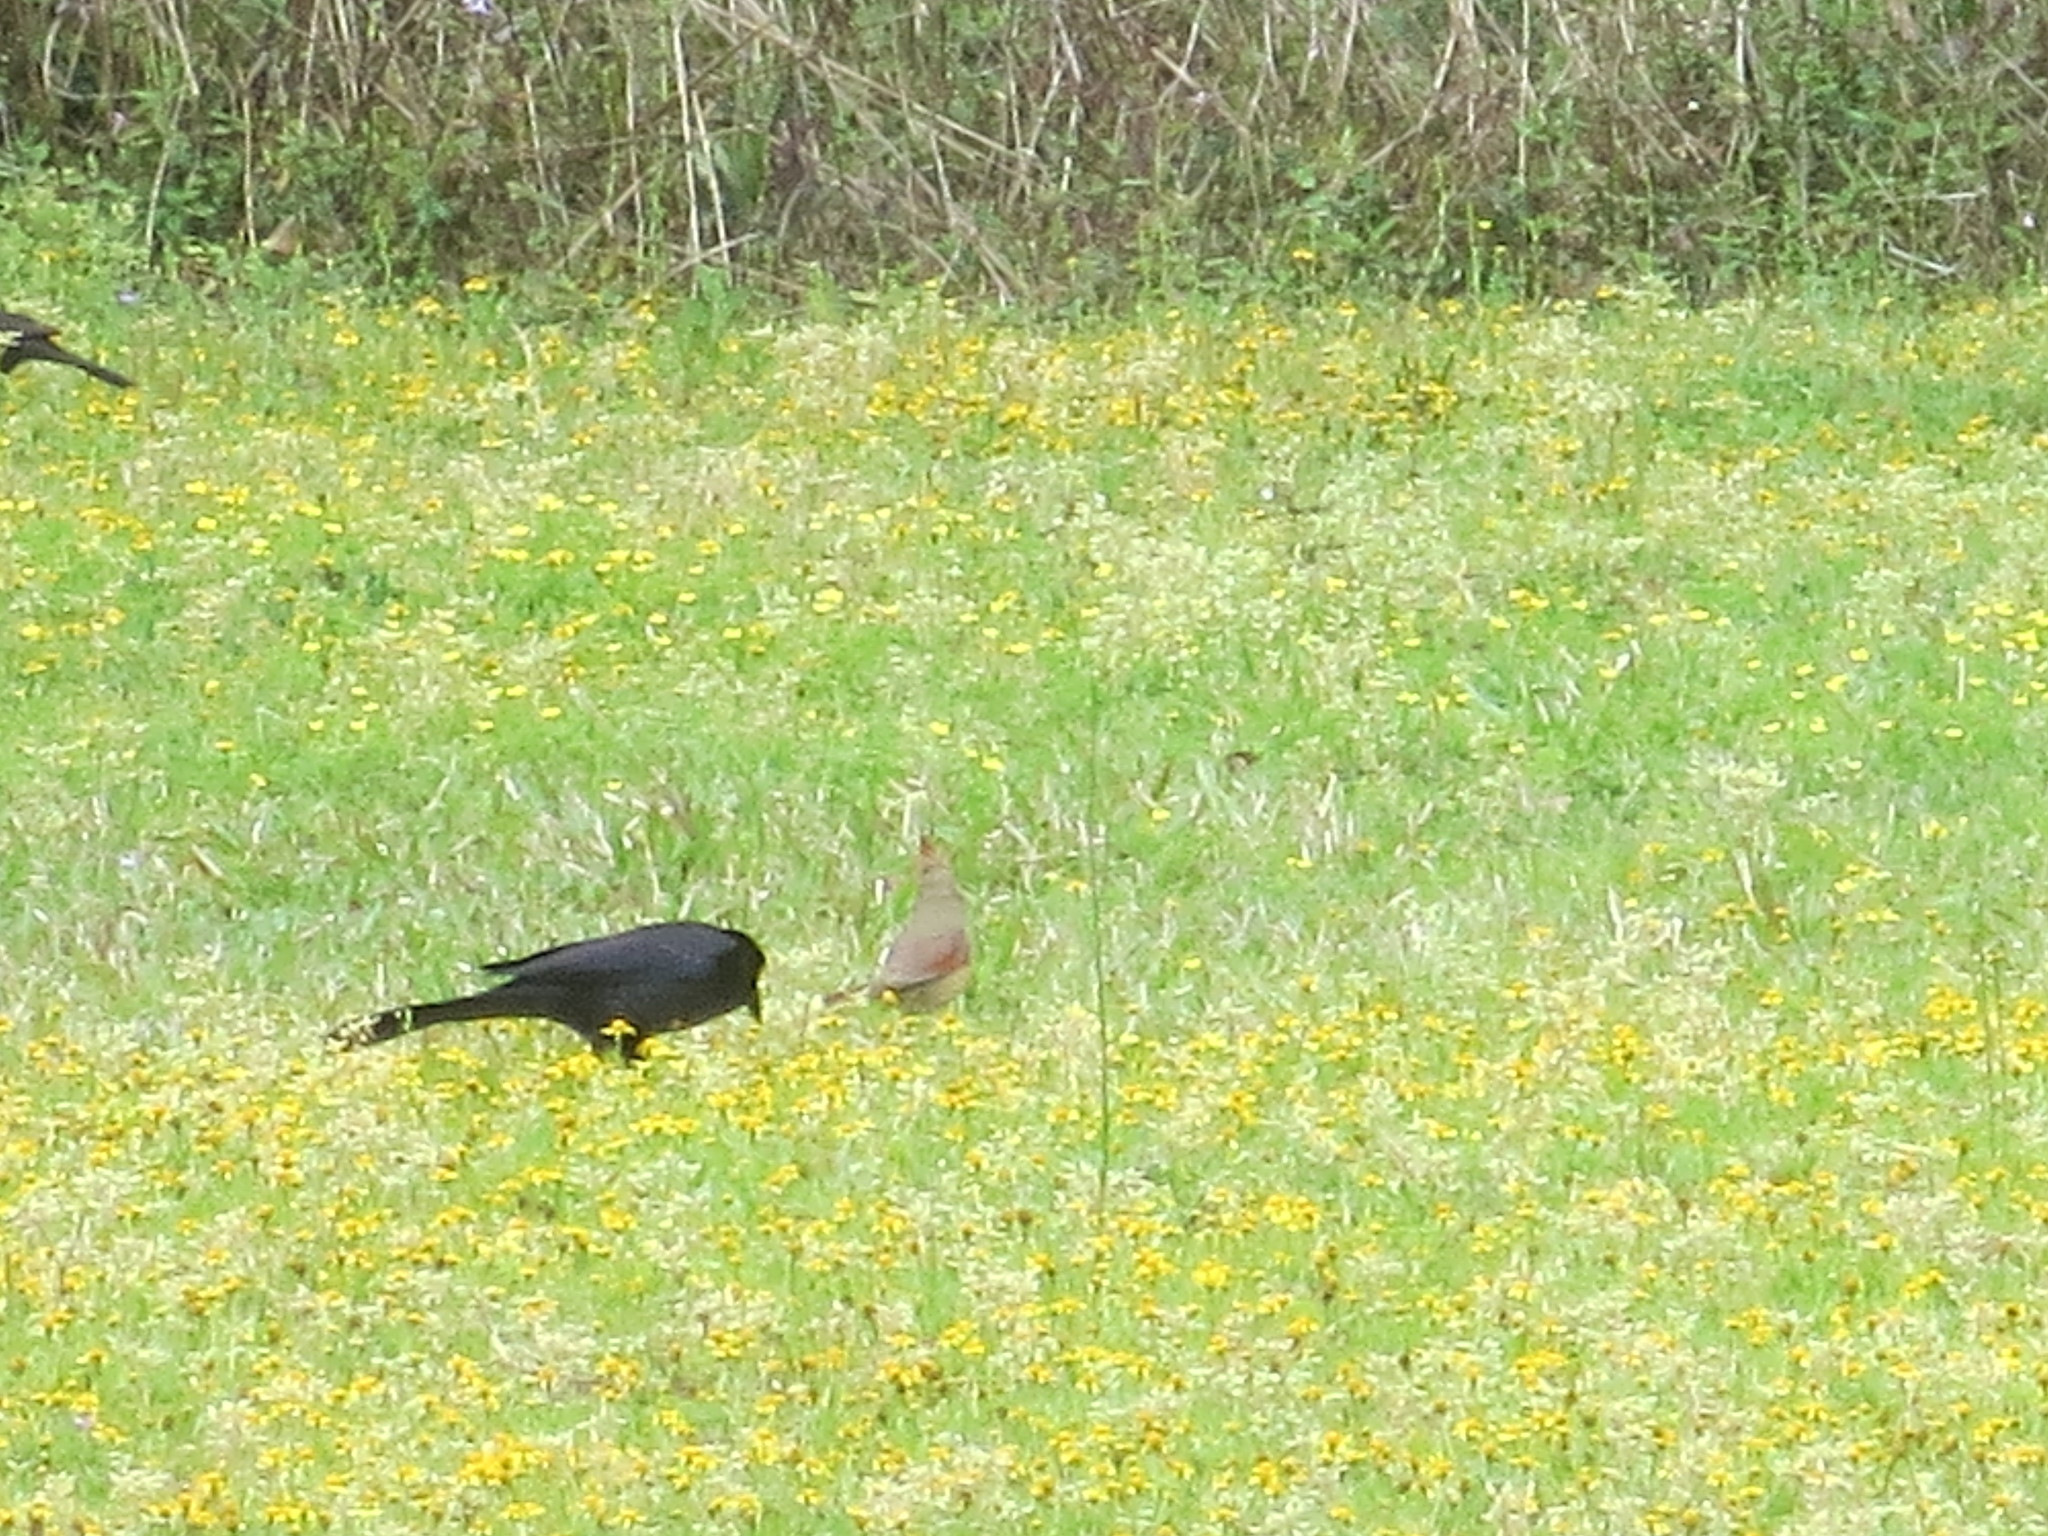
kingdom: Animalia
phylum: Chordata
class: Aves
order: Passeriformes
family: Icteridae
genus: Quiscalus
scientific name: Quiscalus major
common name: Boat-tailed grackle
